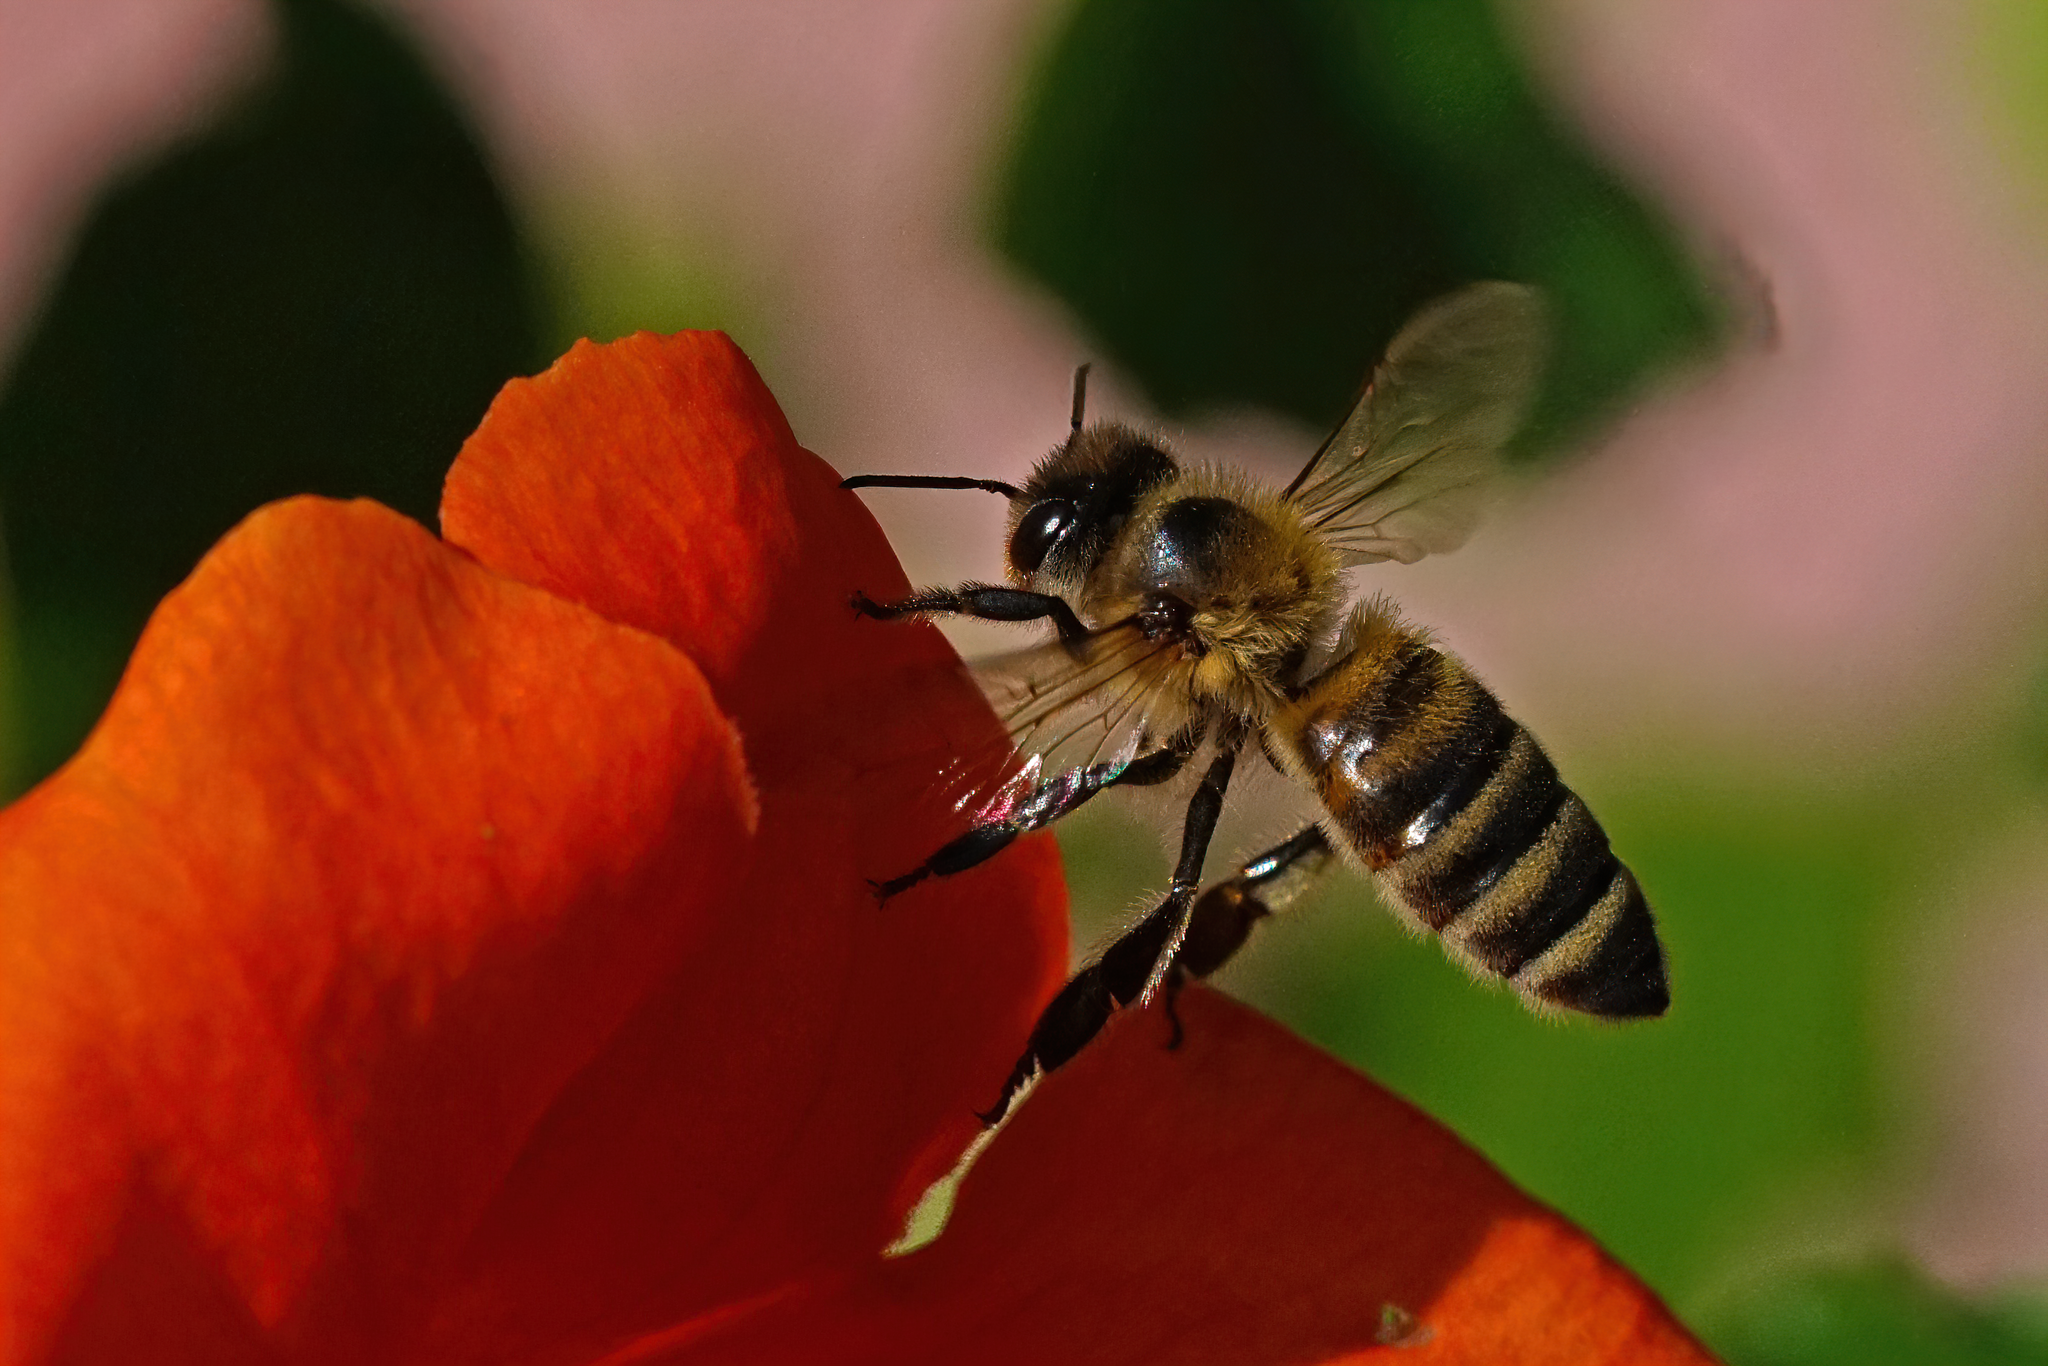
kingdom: Animalia
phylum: Arthropoda
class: Insecta
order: Hymenoptera
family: Apidae
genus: Apis
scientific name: Apis mellifera
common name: Honey bee
